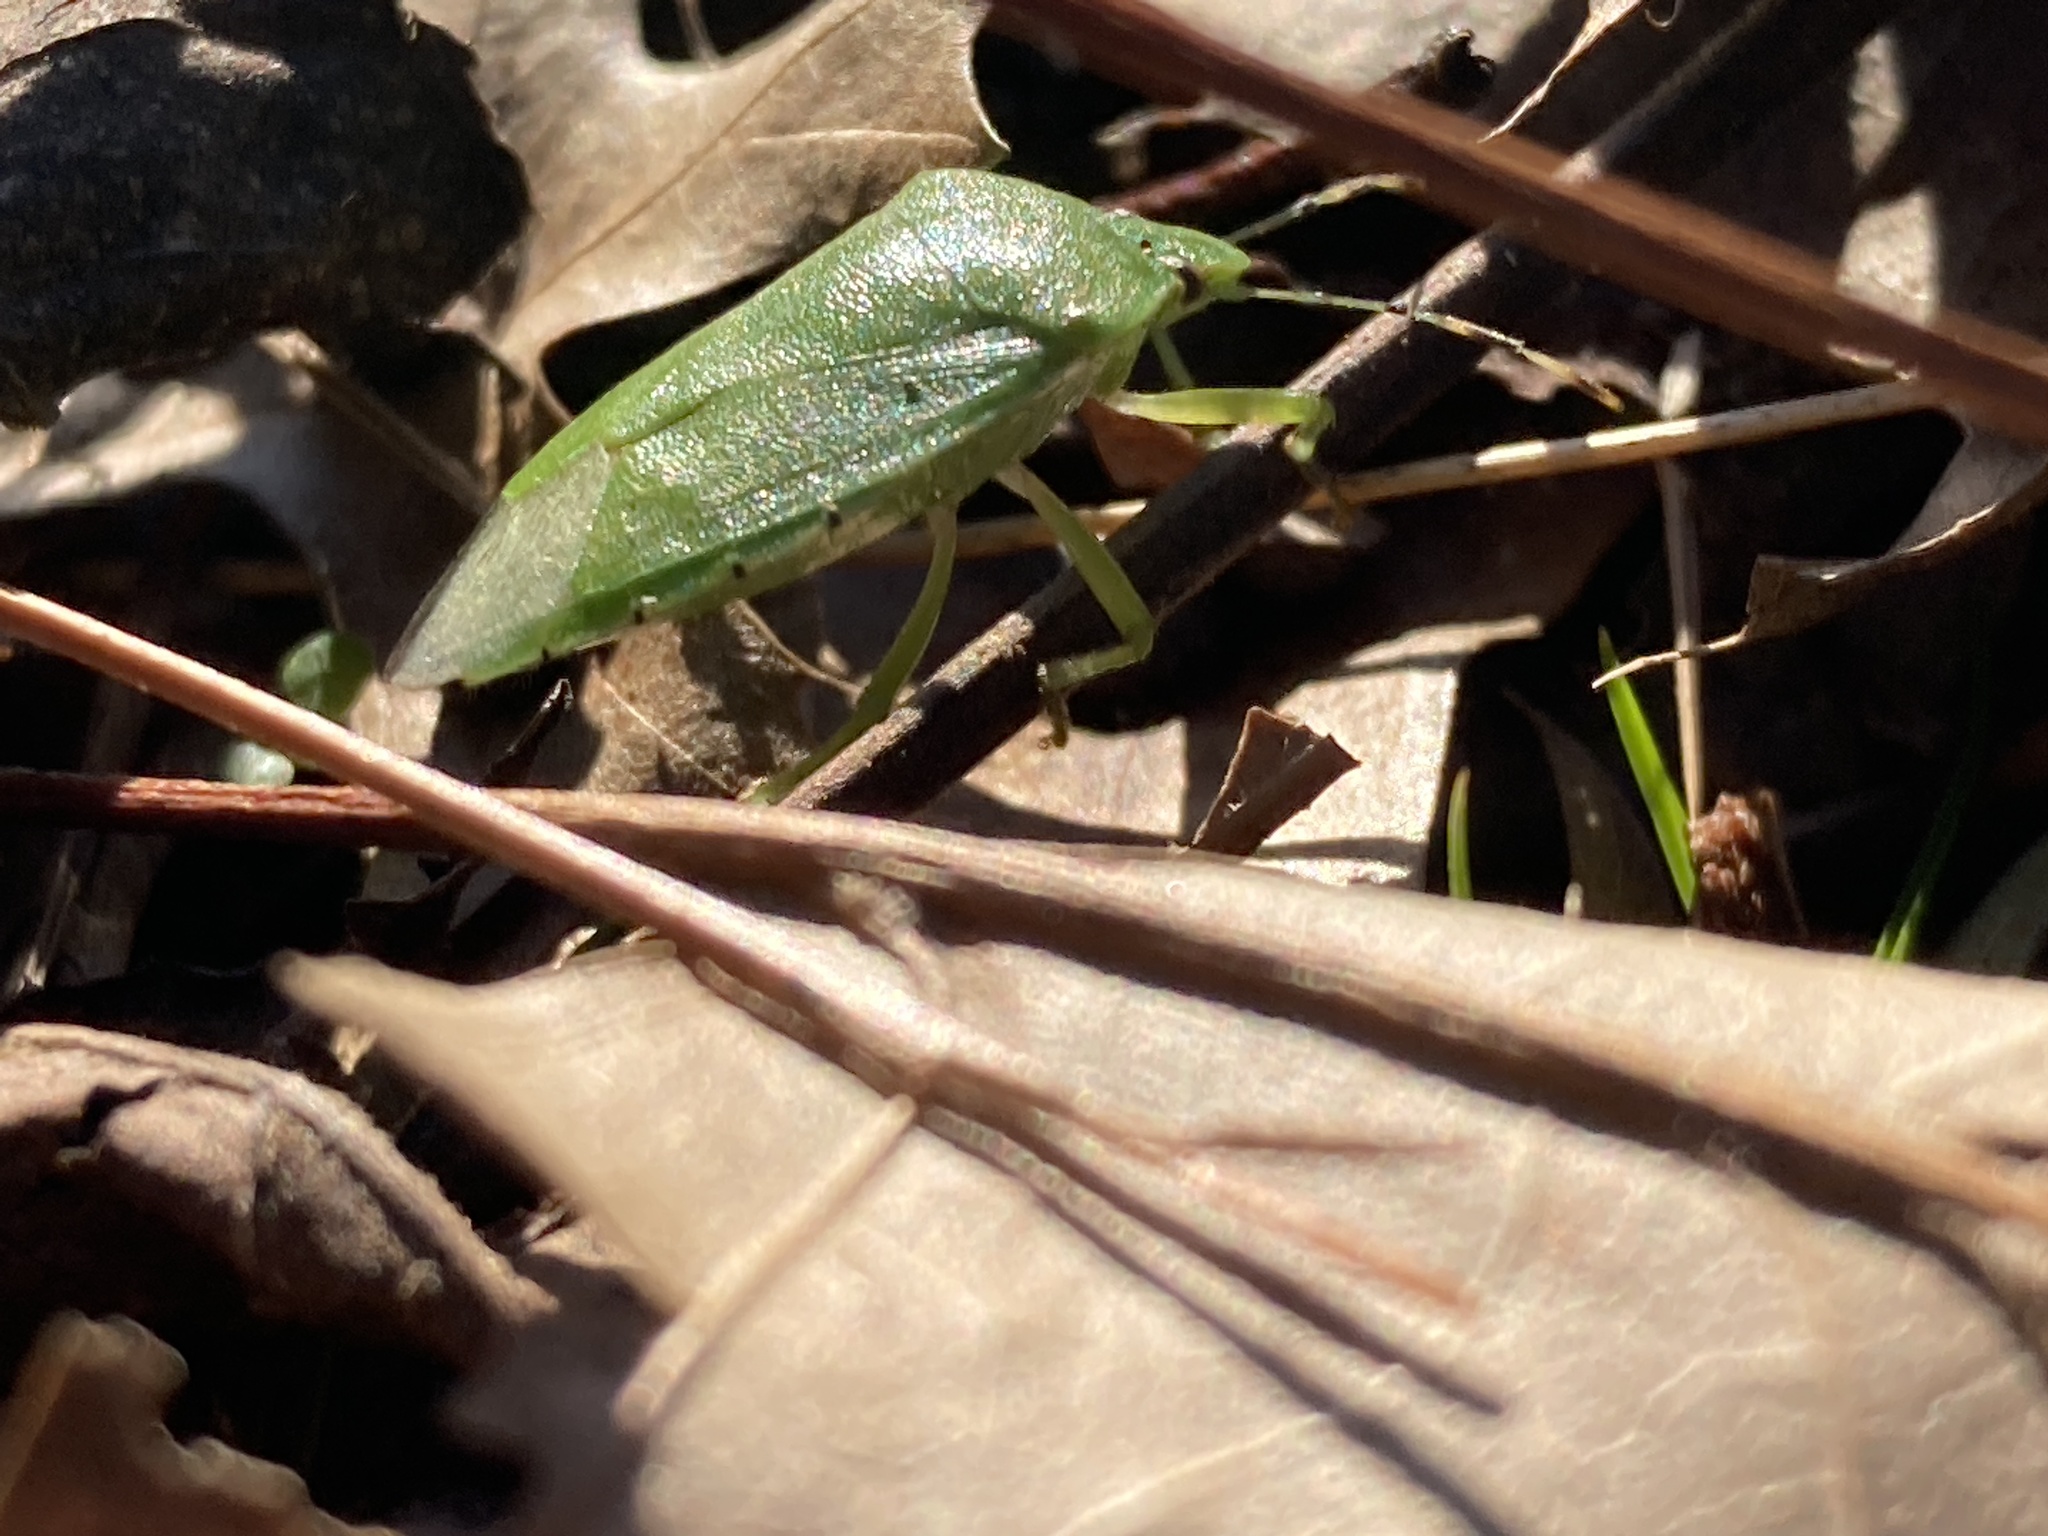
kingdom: Animalia
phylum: Arthropoda
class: Insecta
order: Hemiptera
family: Pentatomidae
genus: Chinavia
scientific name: Chinavia hilaris
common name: Green stink bug
